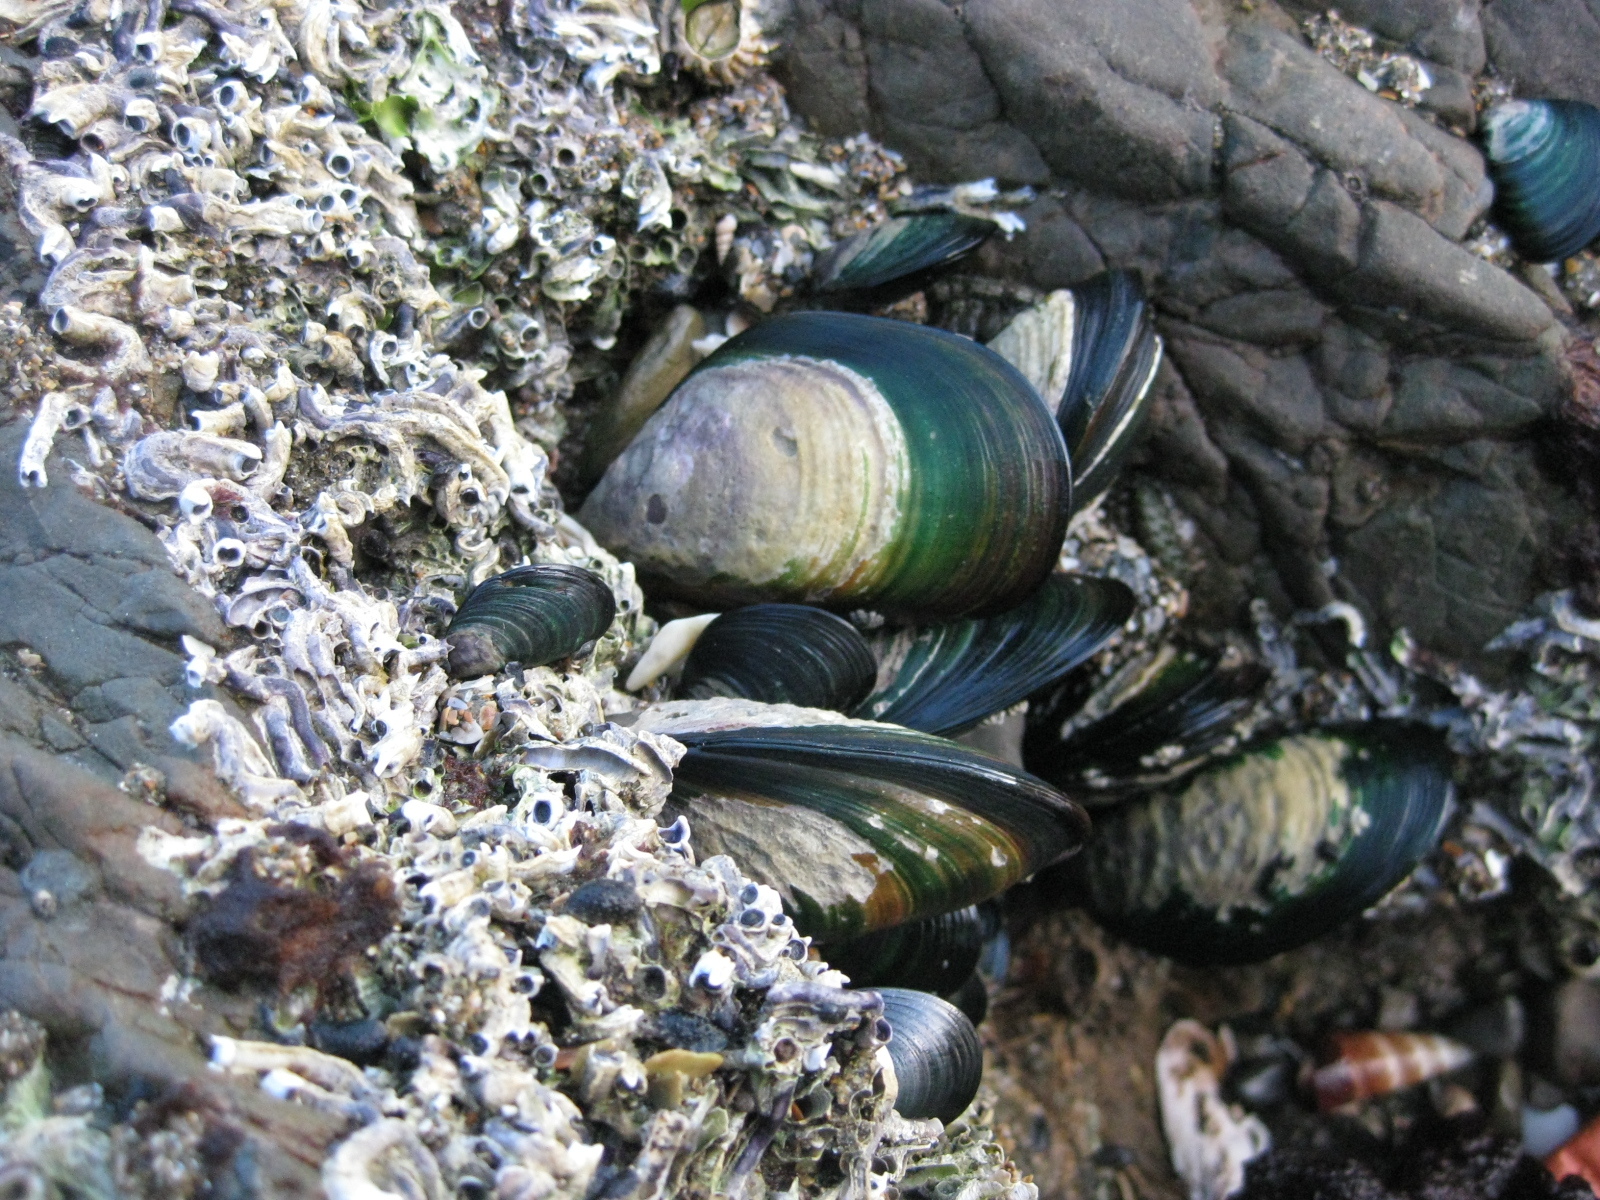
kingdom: Animalia
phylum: Mollusca
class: Bivalvia
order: Mytilida
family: Mytilidae
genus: Perna
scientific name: Perna canaliculus
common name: New zealand greenshelltm
